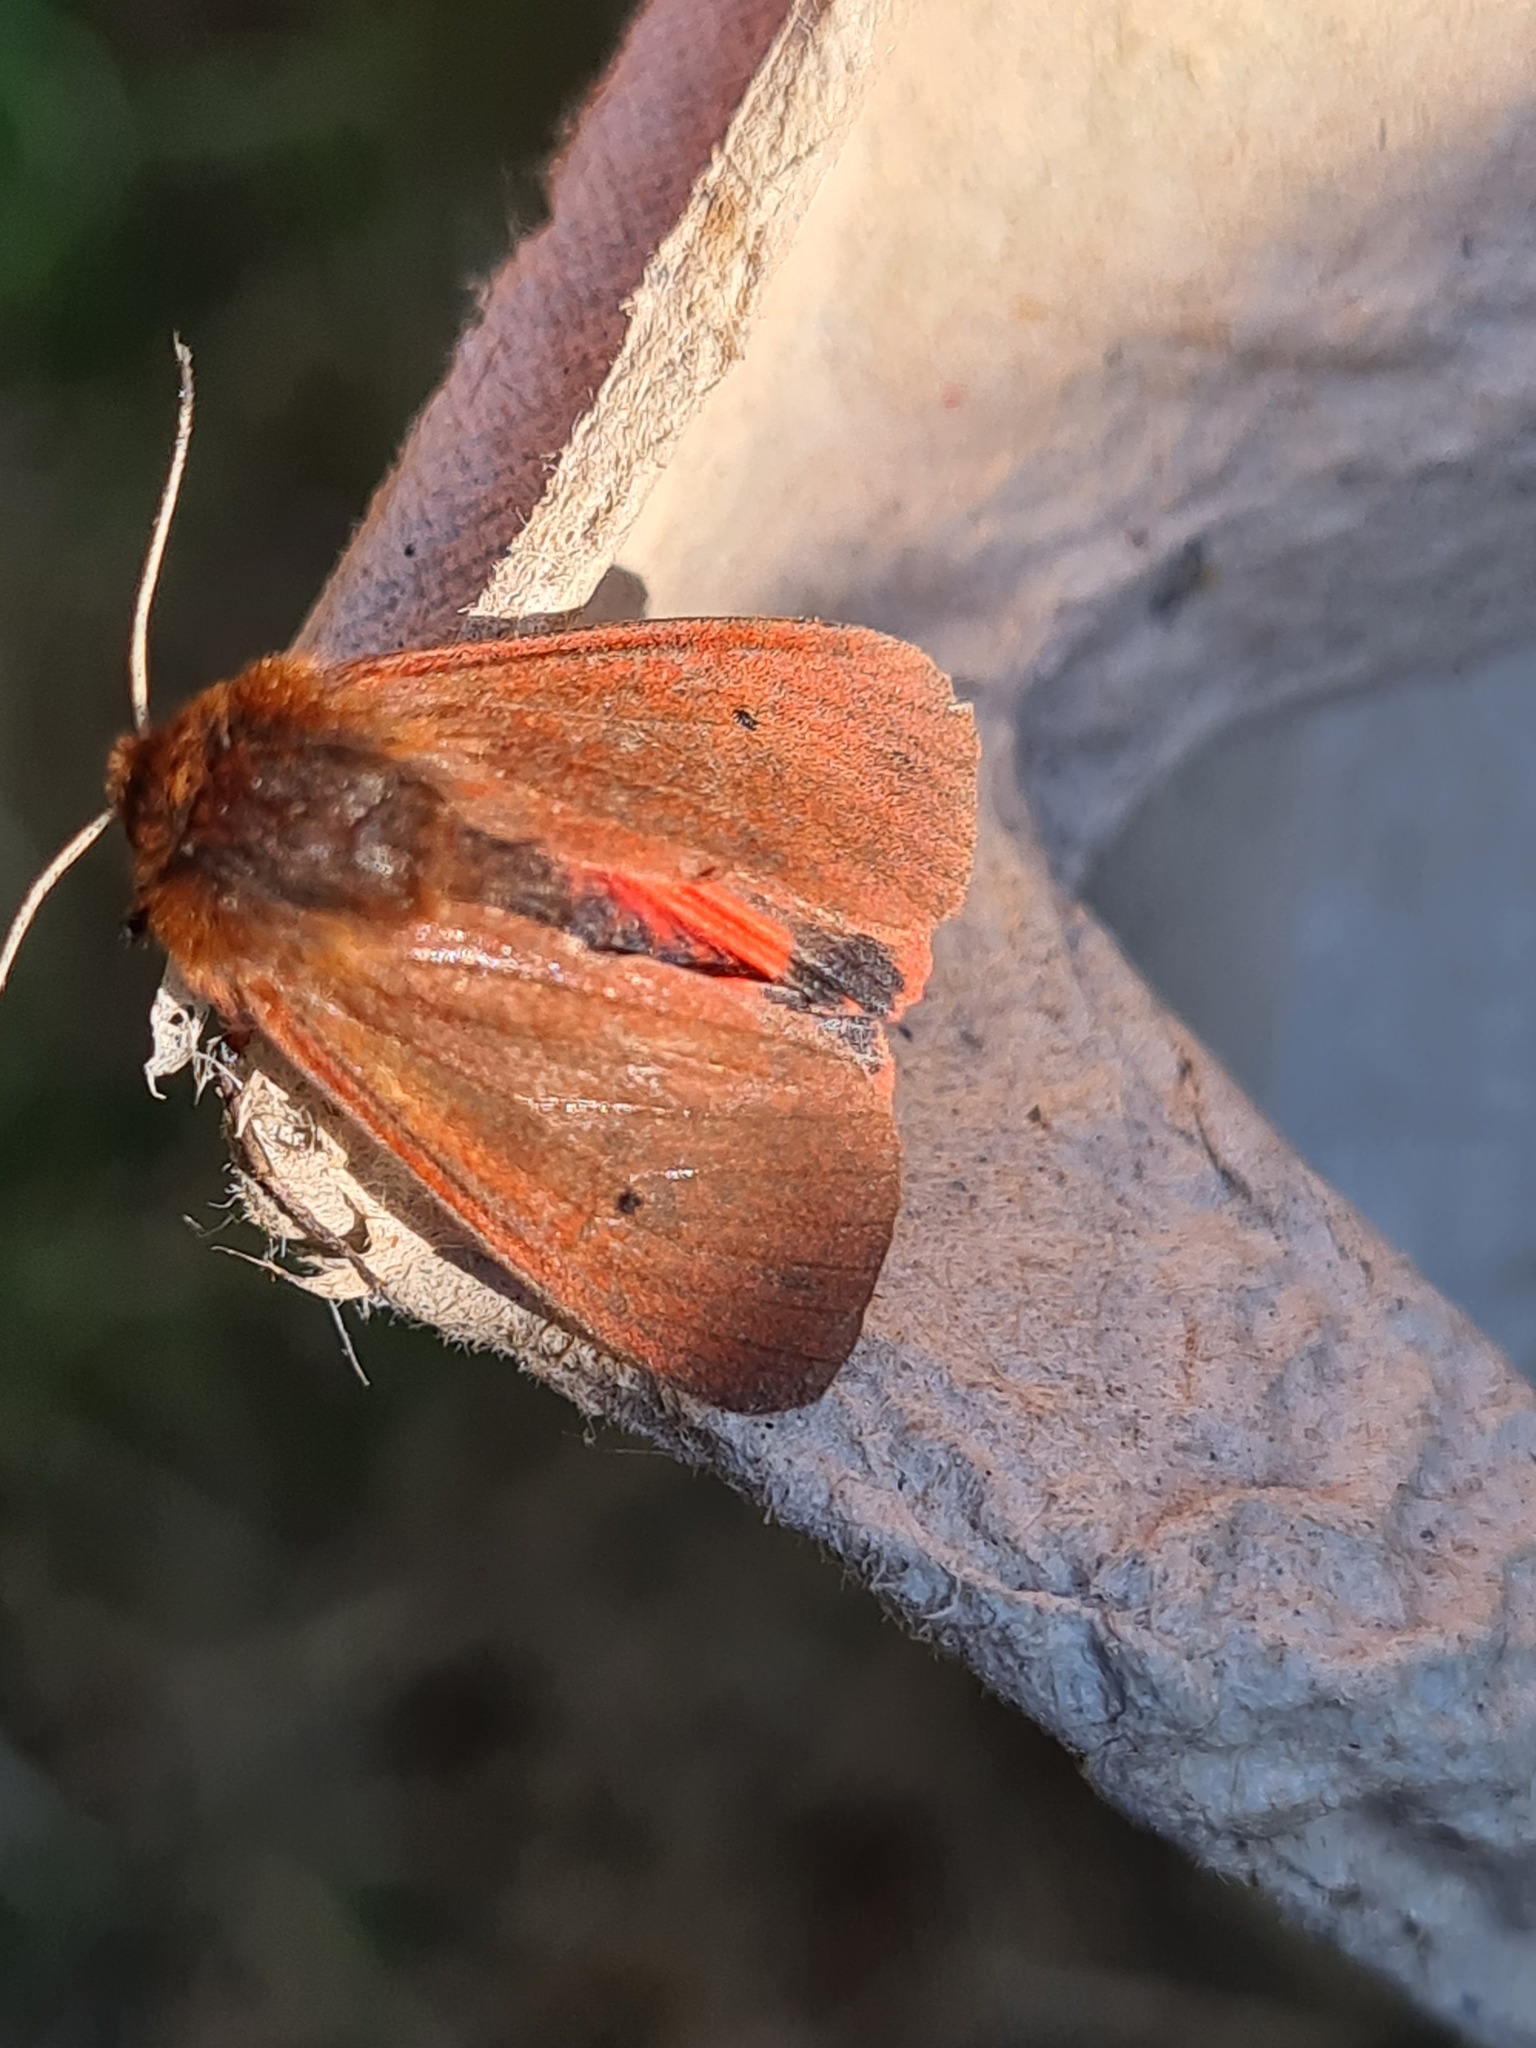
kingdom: Animalia
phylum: Arthropoda
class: Insecta
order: Lepidoptera
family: Erebidae
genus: Phragmatobia
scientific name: Phragmatobia fuliginosa
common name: Ruby tiger
